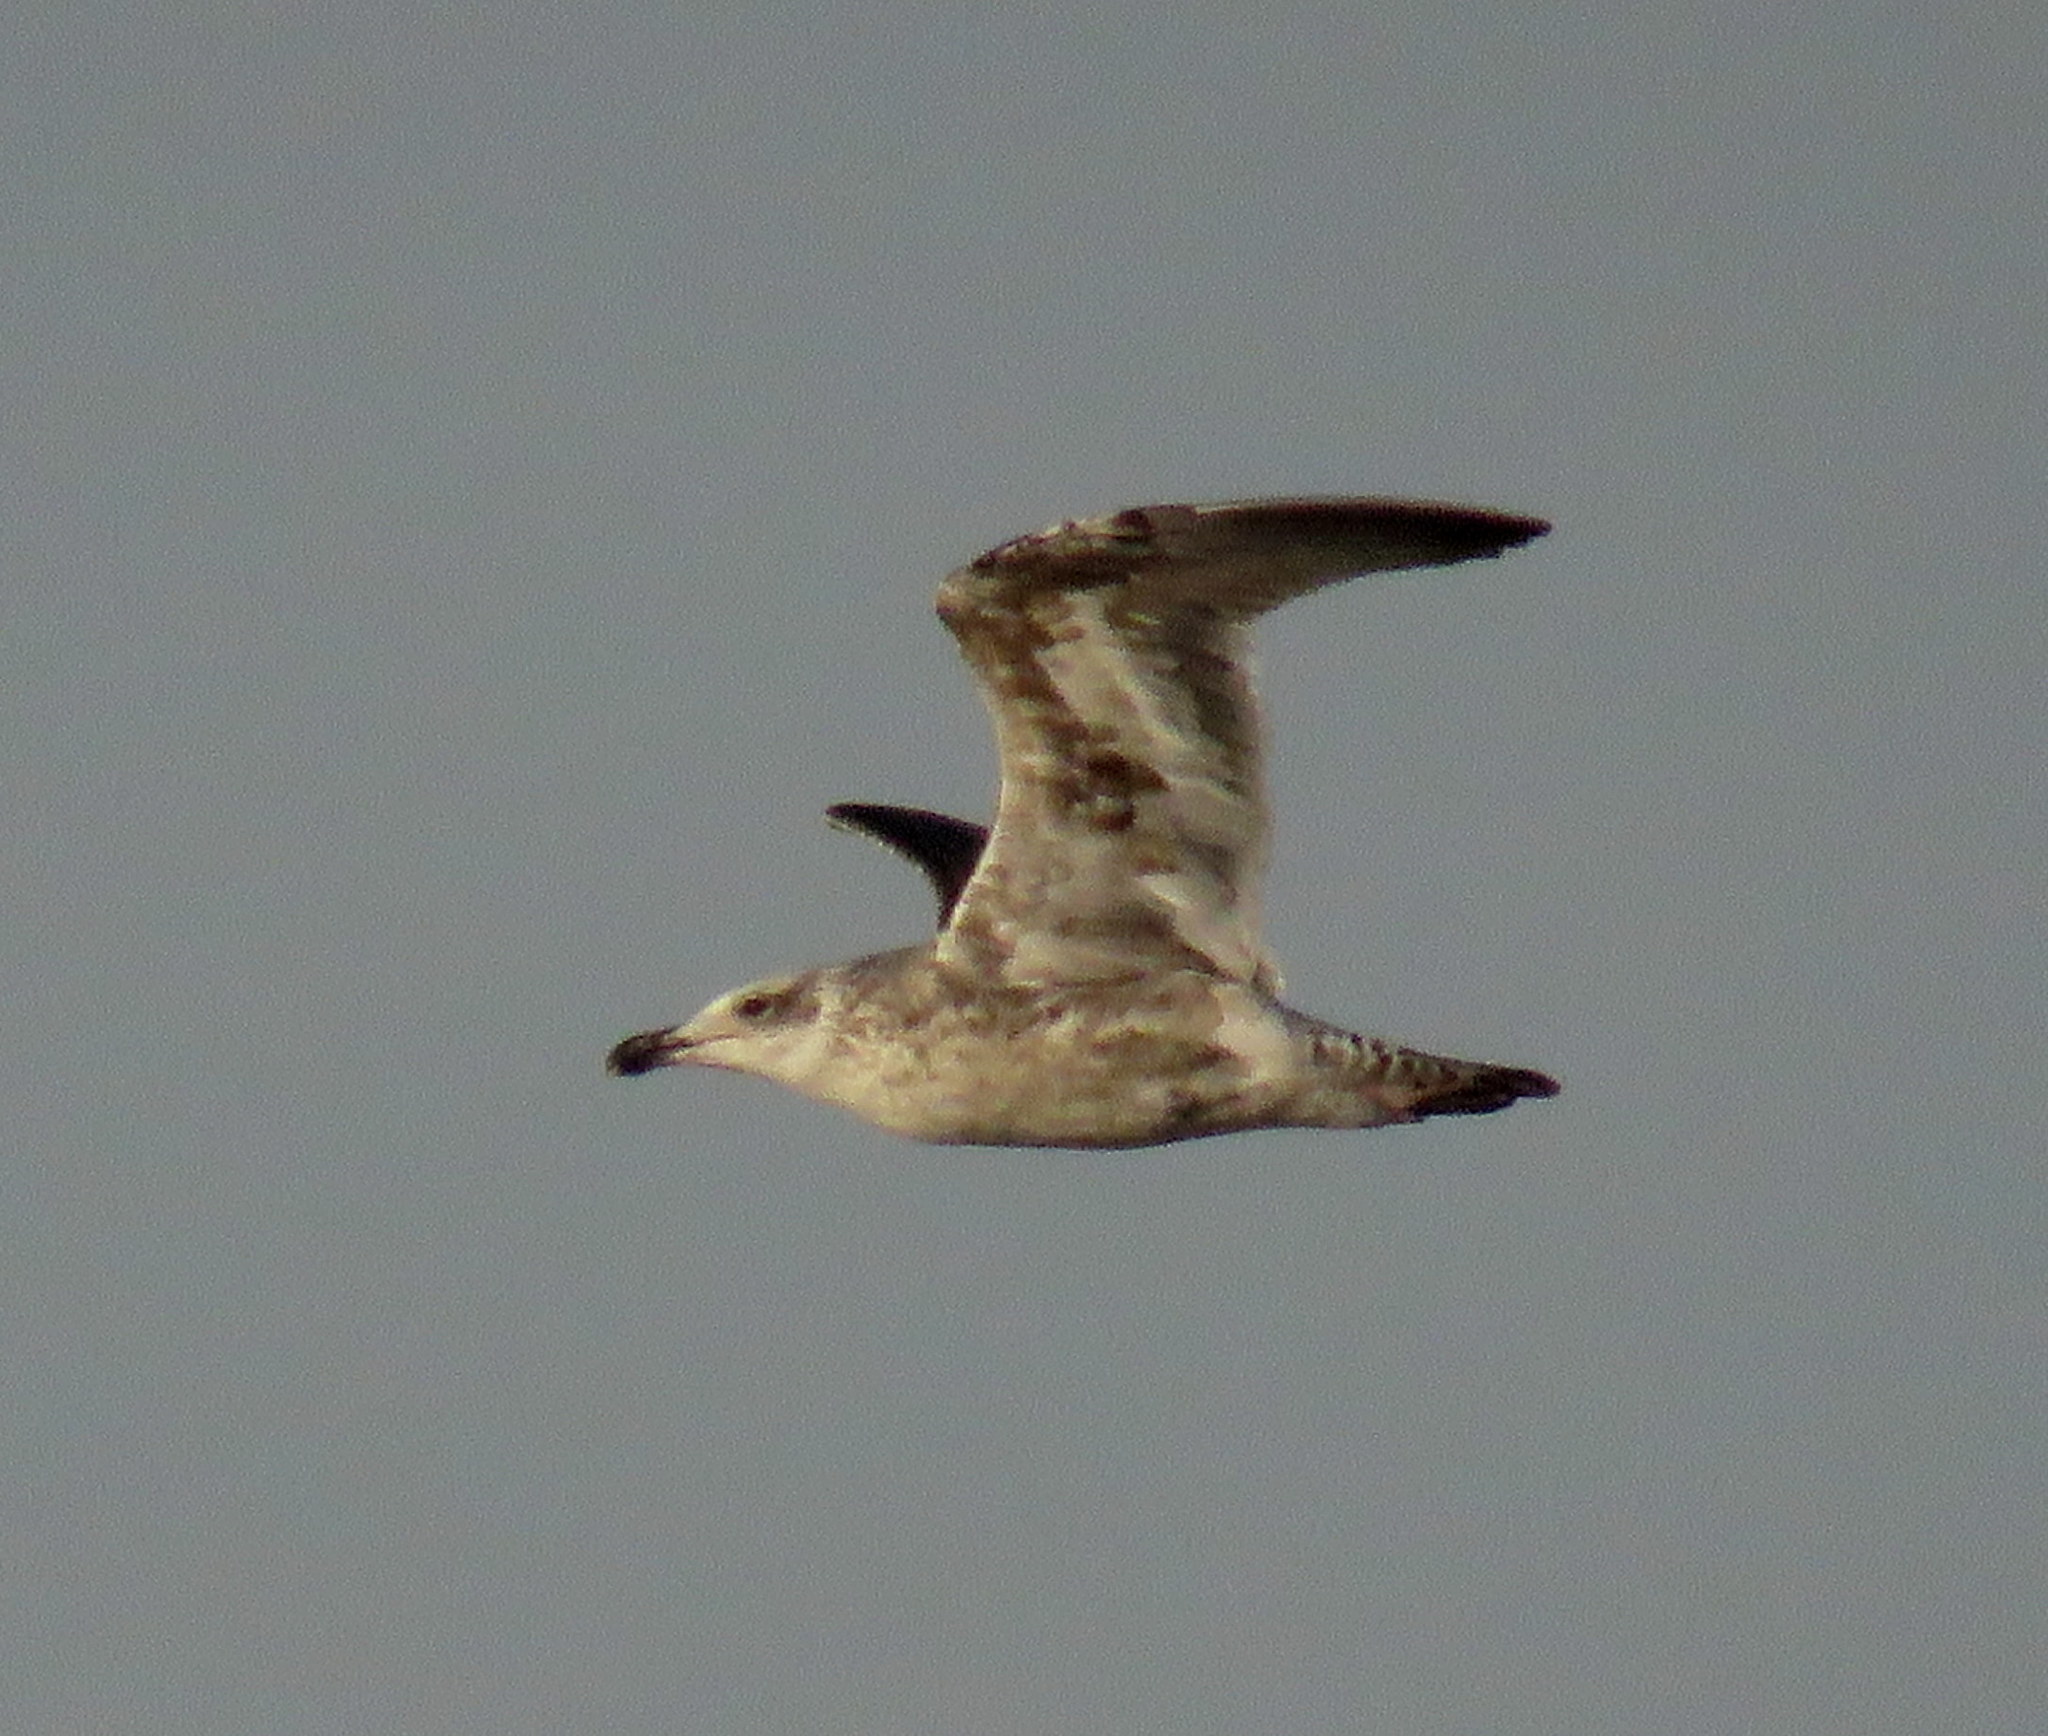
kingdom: Animalia
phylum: Chordata
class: Aves
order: Charadriiformes
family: Laridae
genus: Larus
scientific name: Larus dominicanus
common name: Kelp gull
